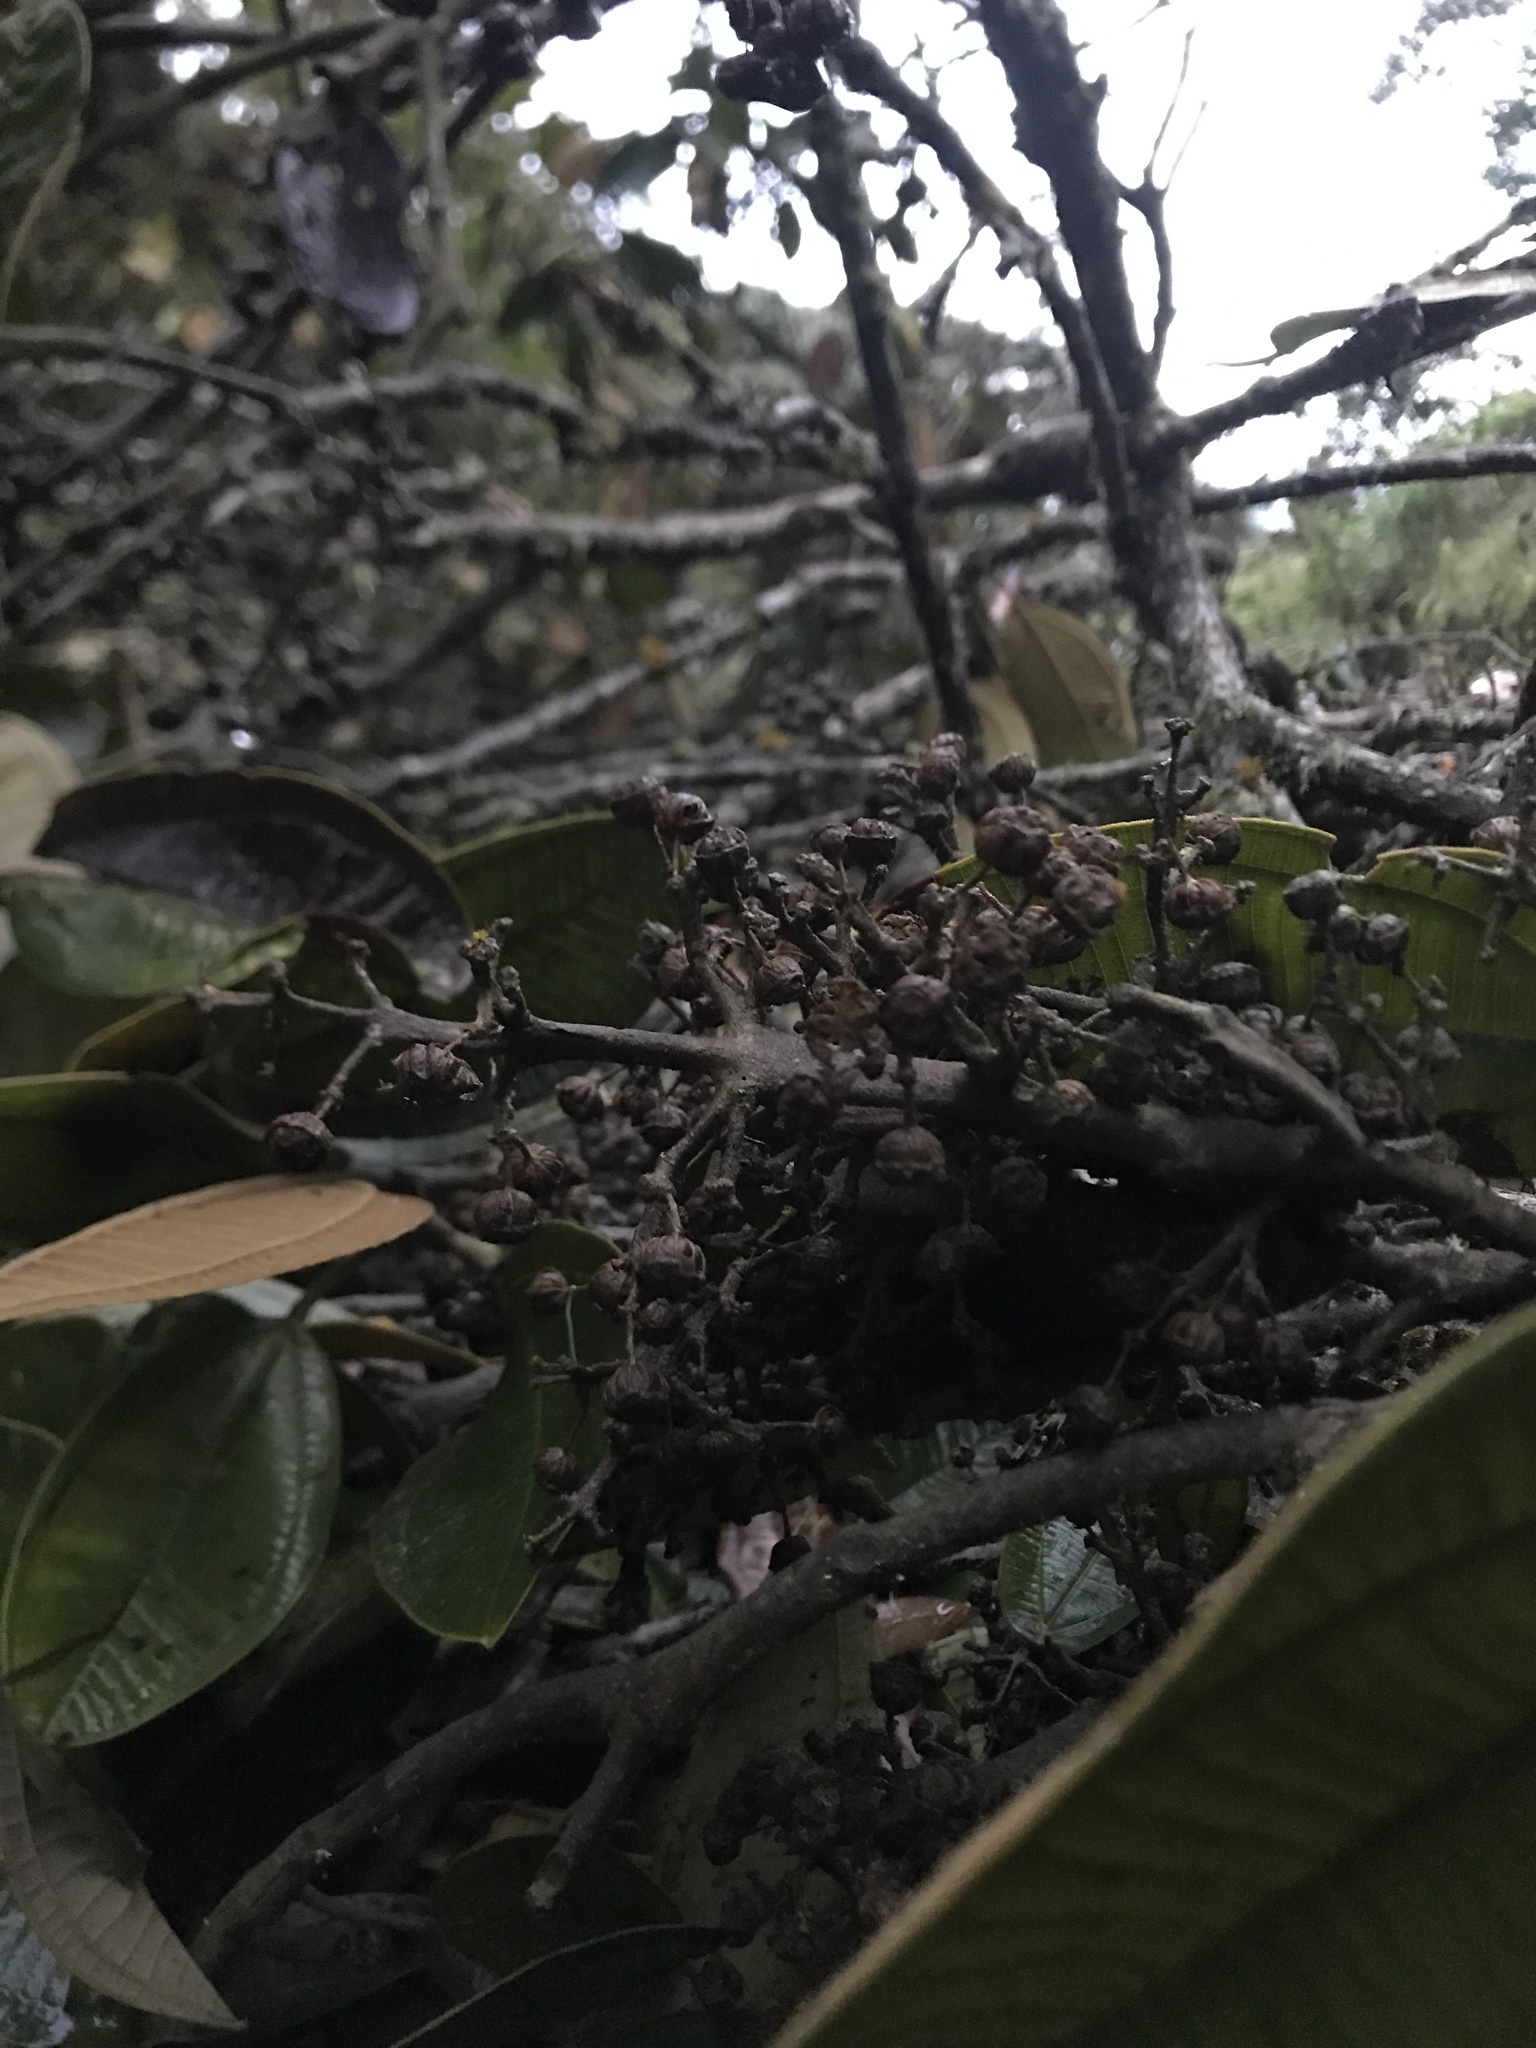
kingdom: Plantae
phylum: Tracheophyta
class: Magnoliopsida
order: Myrtales
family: Melastomataceae
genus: Meriania
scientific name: Meriania macrophylla
